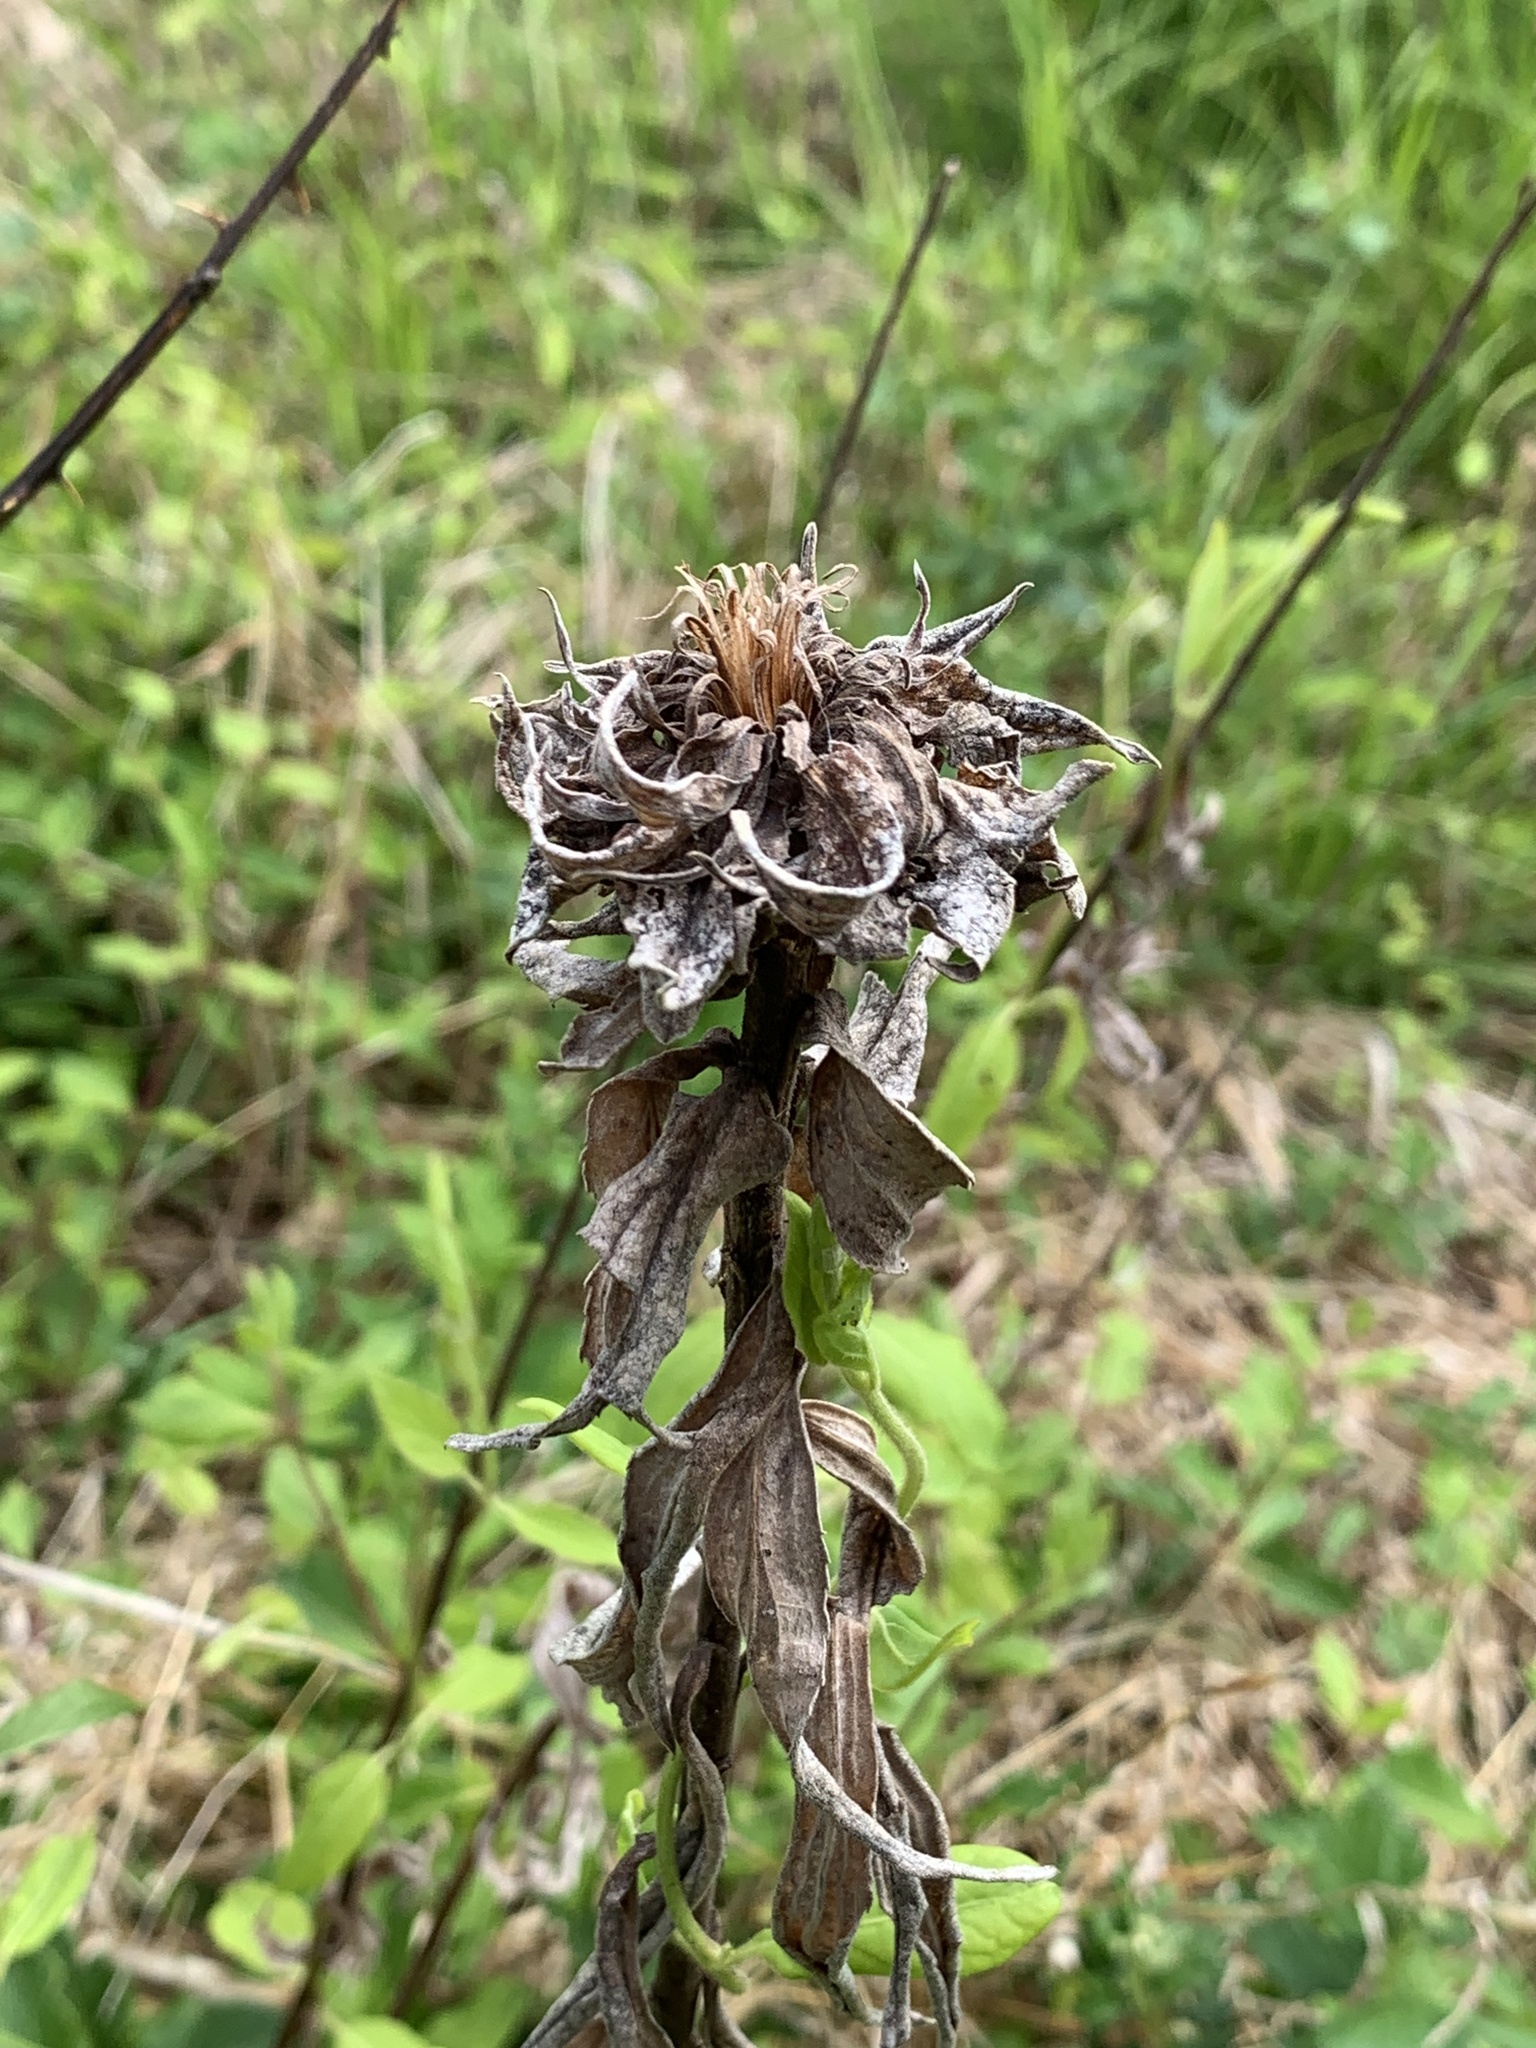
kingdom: Animalia
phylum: Arthropoda
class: Insecta
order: Diptera
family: Cecidomyiidae
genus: Rhopalomyia
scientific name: Rhopalomyia solidaginis
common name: Goldenrod bunch gall midge
